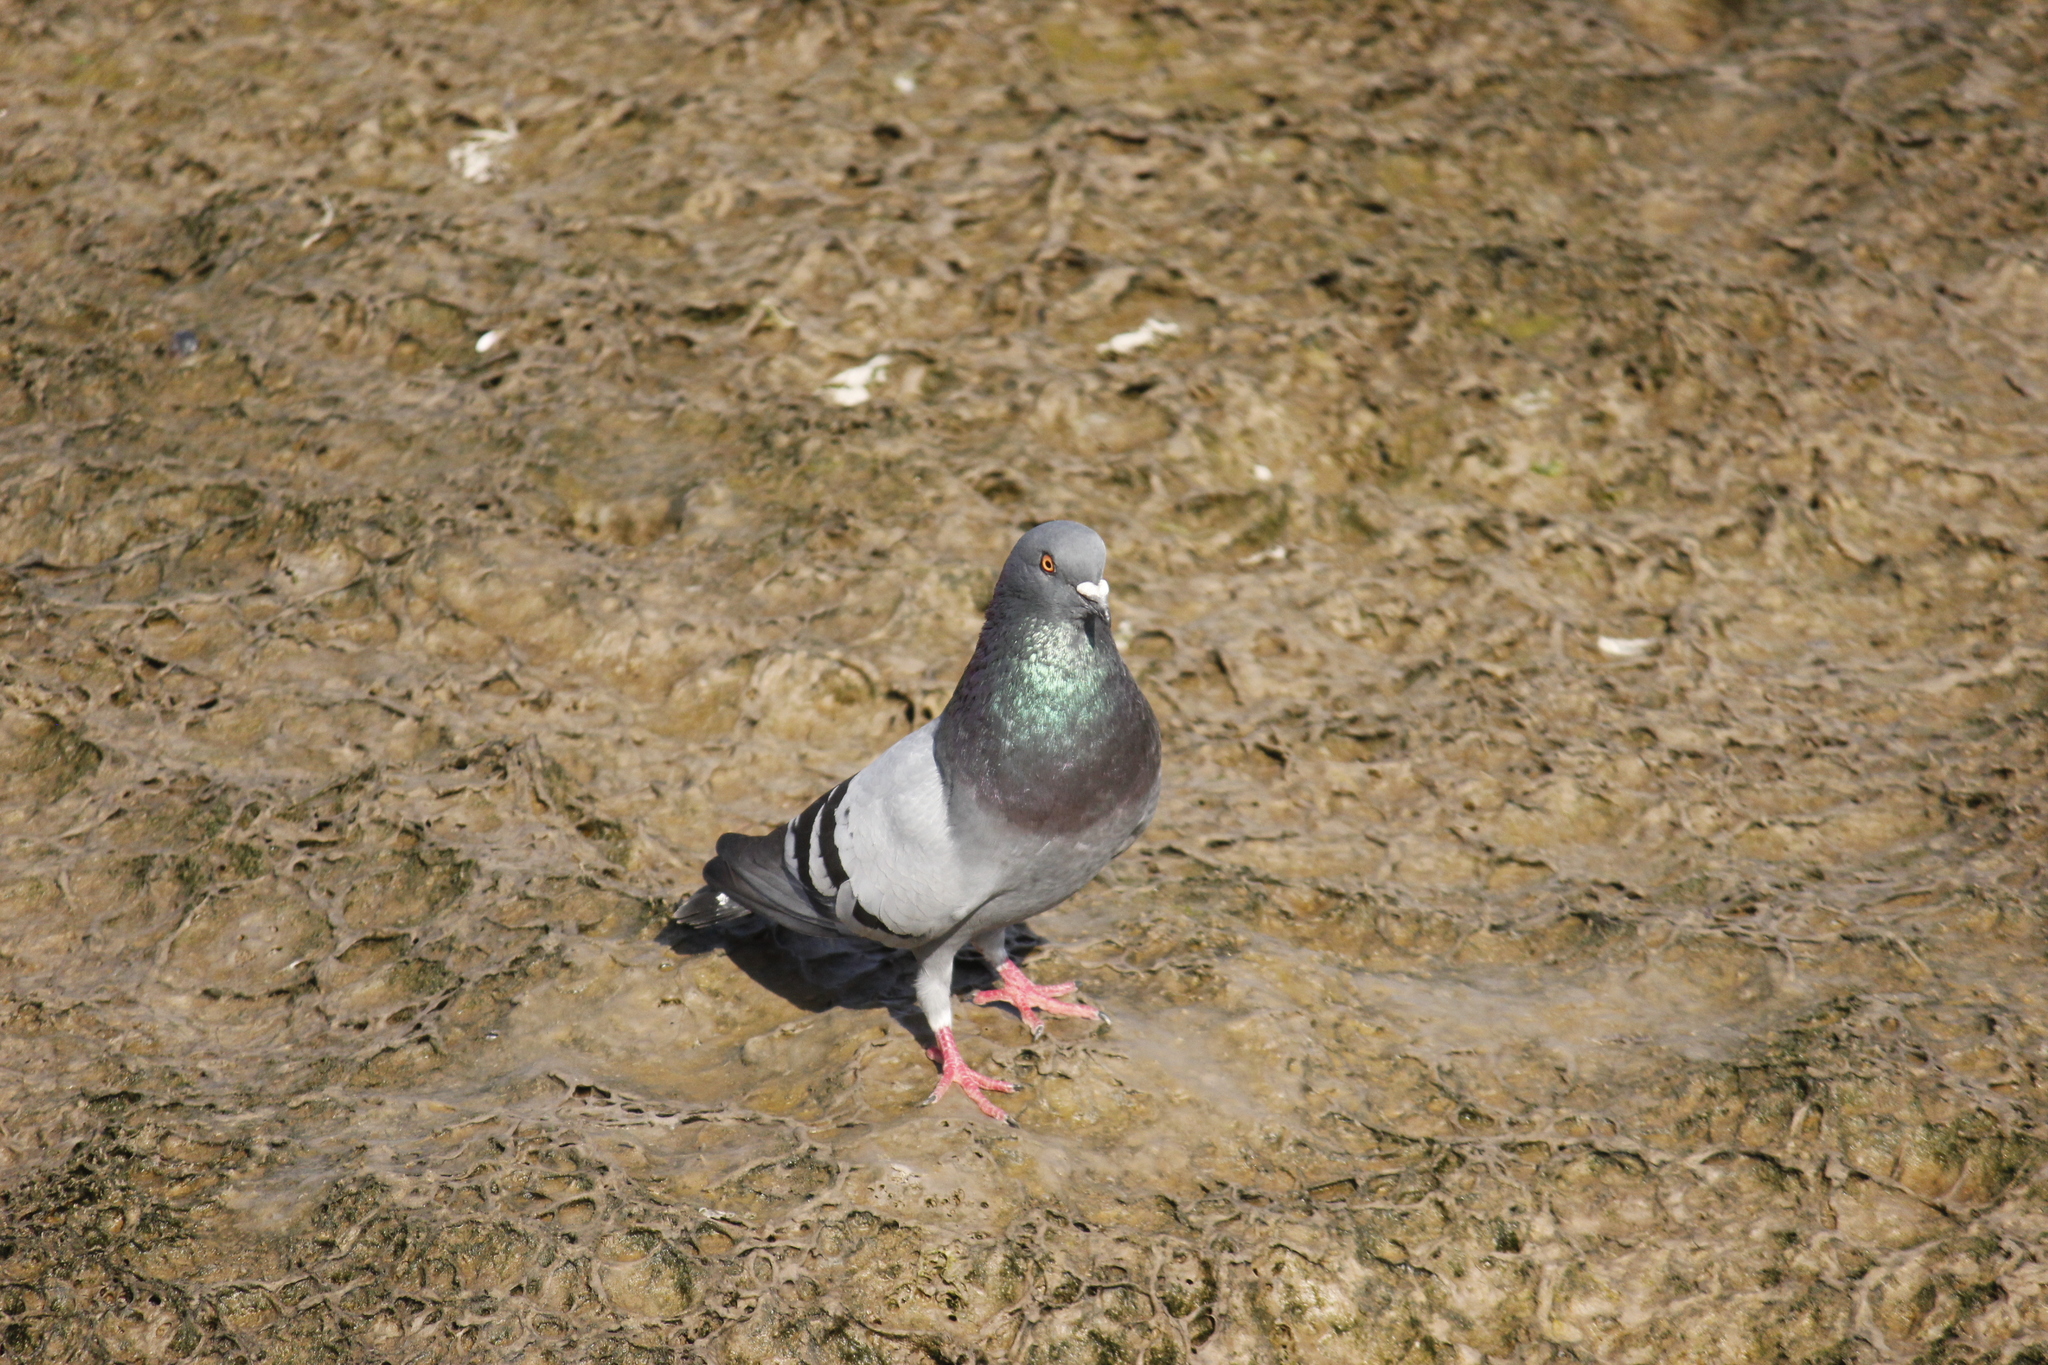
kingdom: Animalia
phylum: Chordata
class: Aves
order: Columbiformes
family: Columbidae
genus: Columba
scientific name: Columba livia
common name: Rock pigeon
